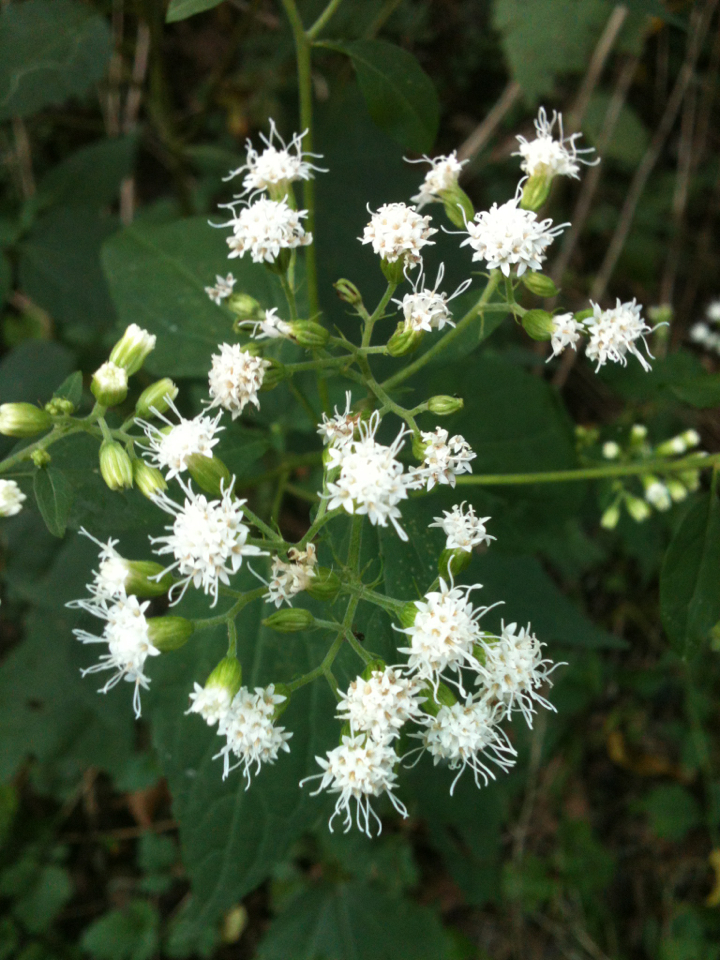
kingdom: Plantae
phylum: Tracheophyta
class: Magnoliopsida
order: Asterales
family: Asteraceae
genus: Ageratina
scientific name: Ageratina altissima
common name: White snakeroot
